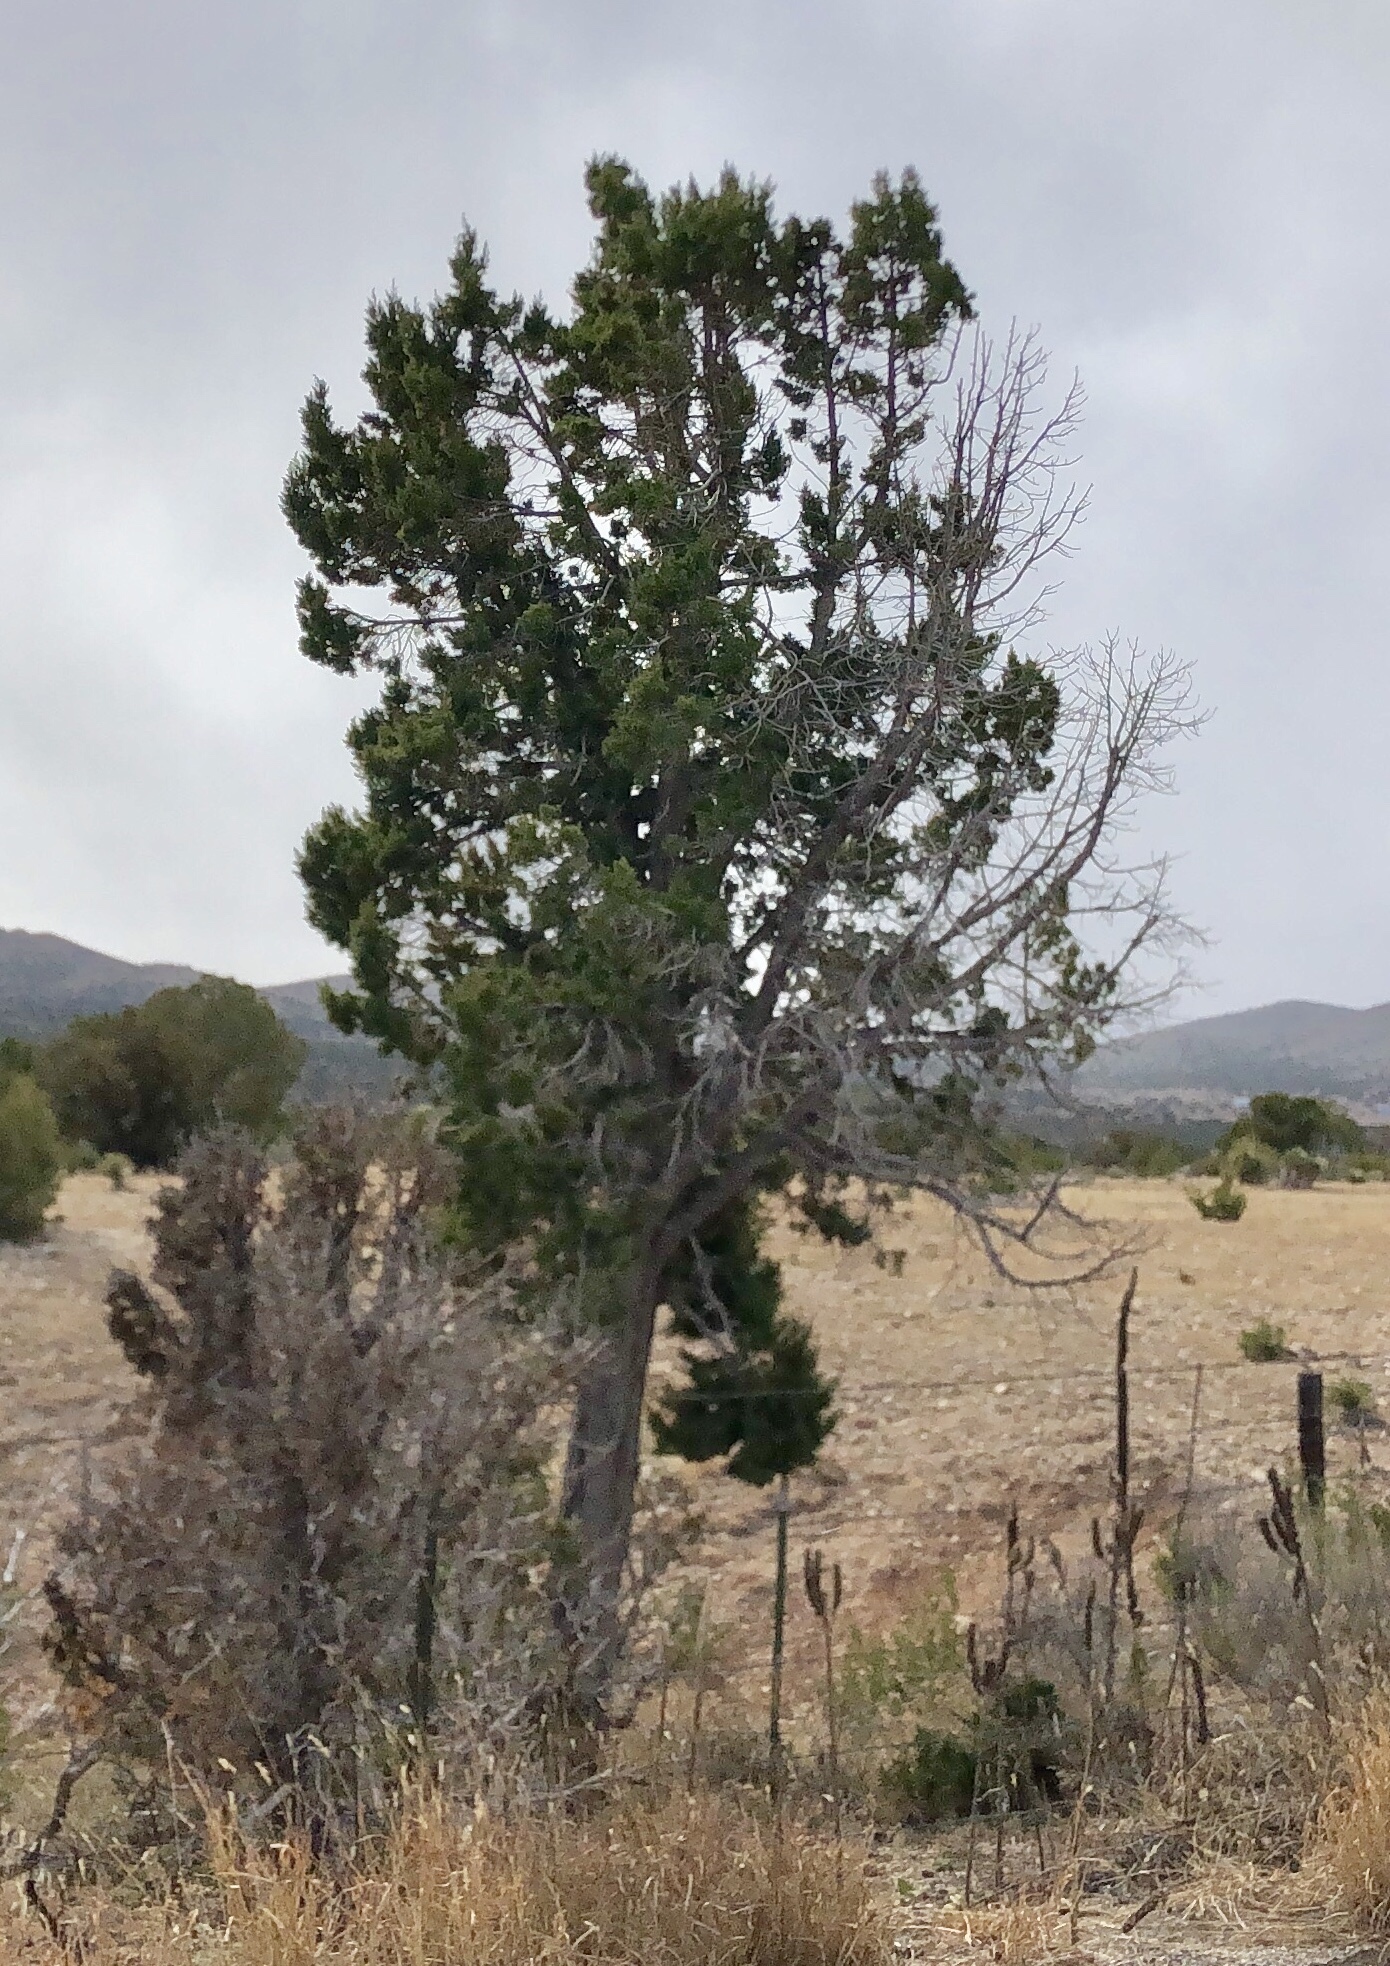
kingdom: Plantae
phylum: Tracheophyta
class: Pinopsida
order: Pinales
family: Cupressaceae
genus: Juniperus
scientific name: Juniperus monosperma
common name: One-seed juniper
